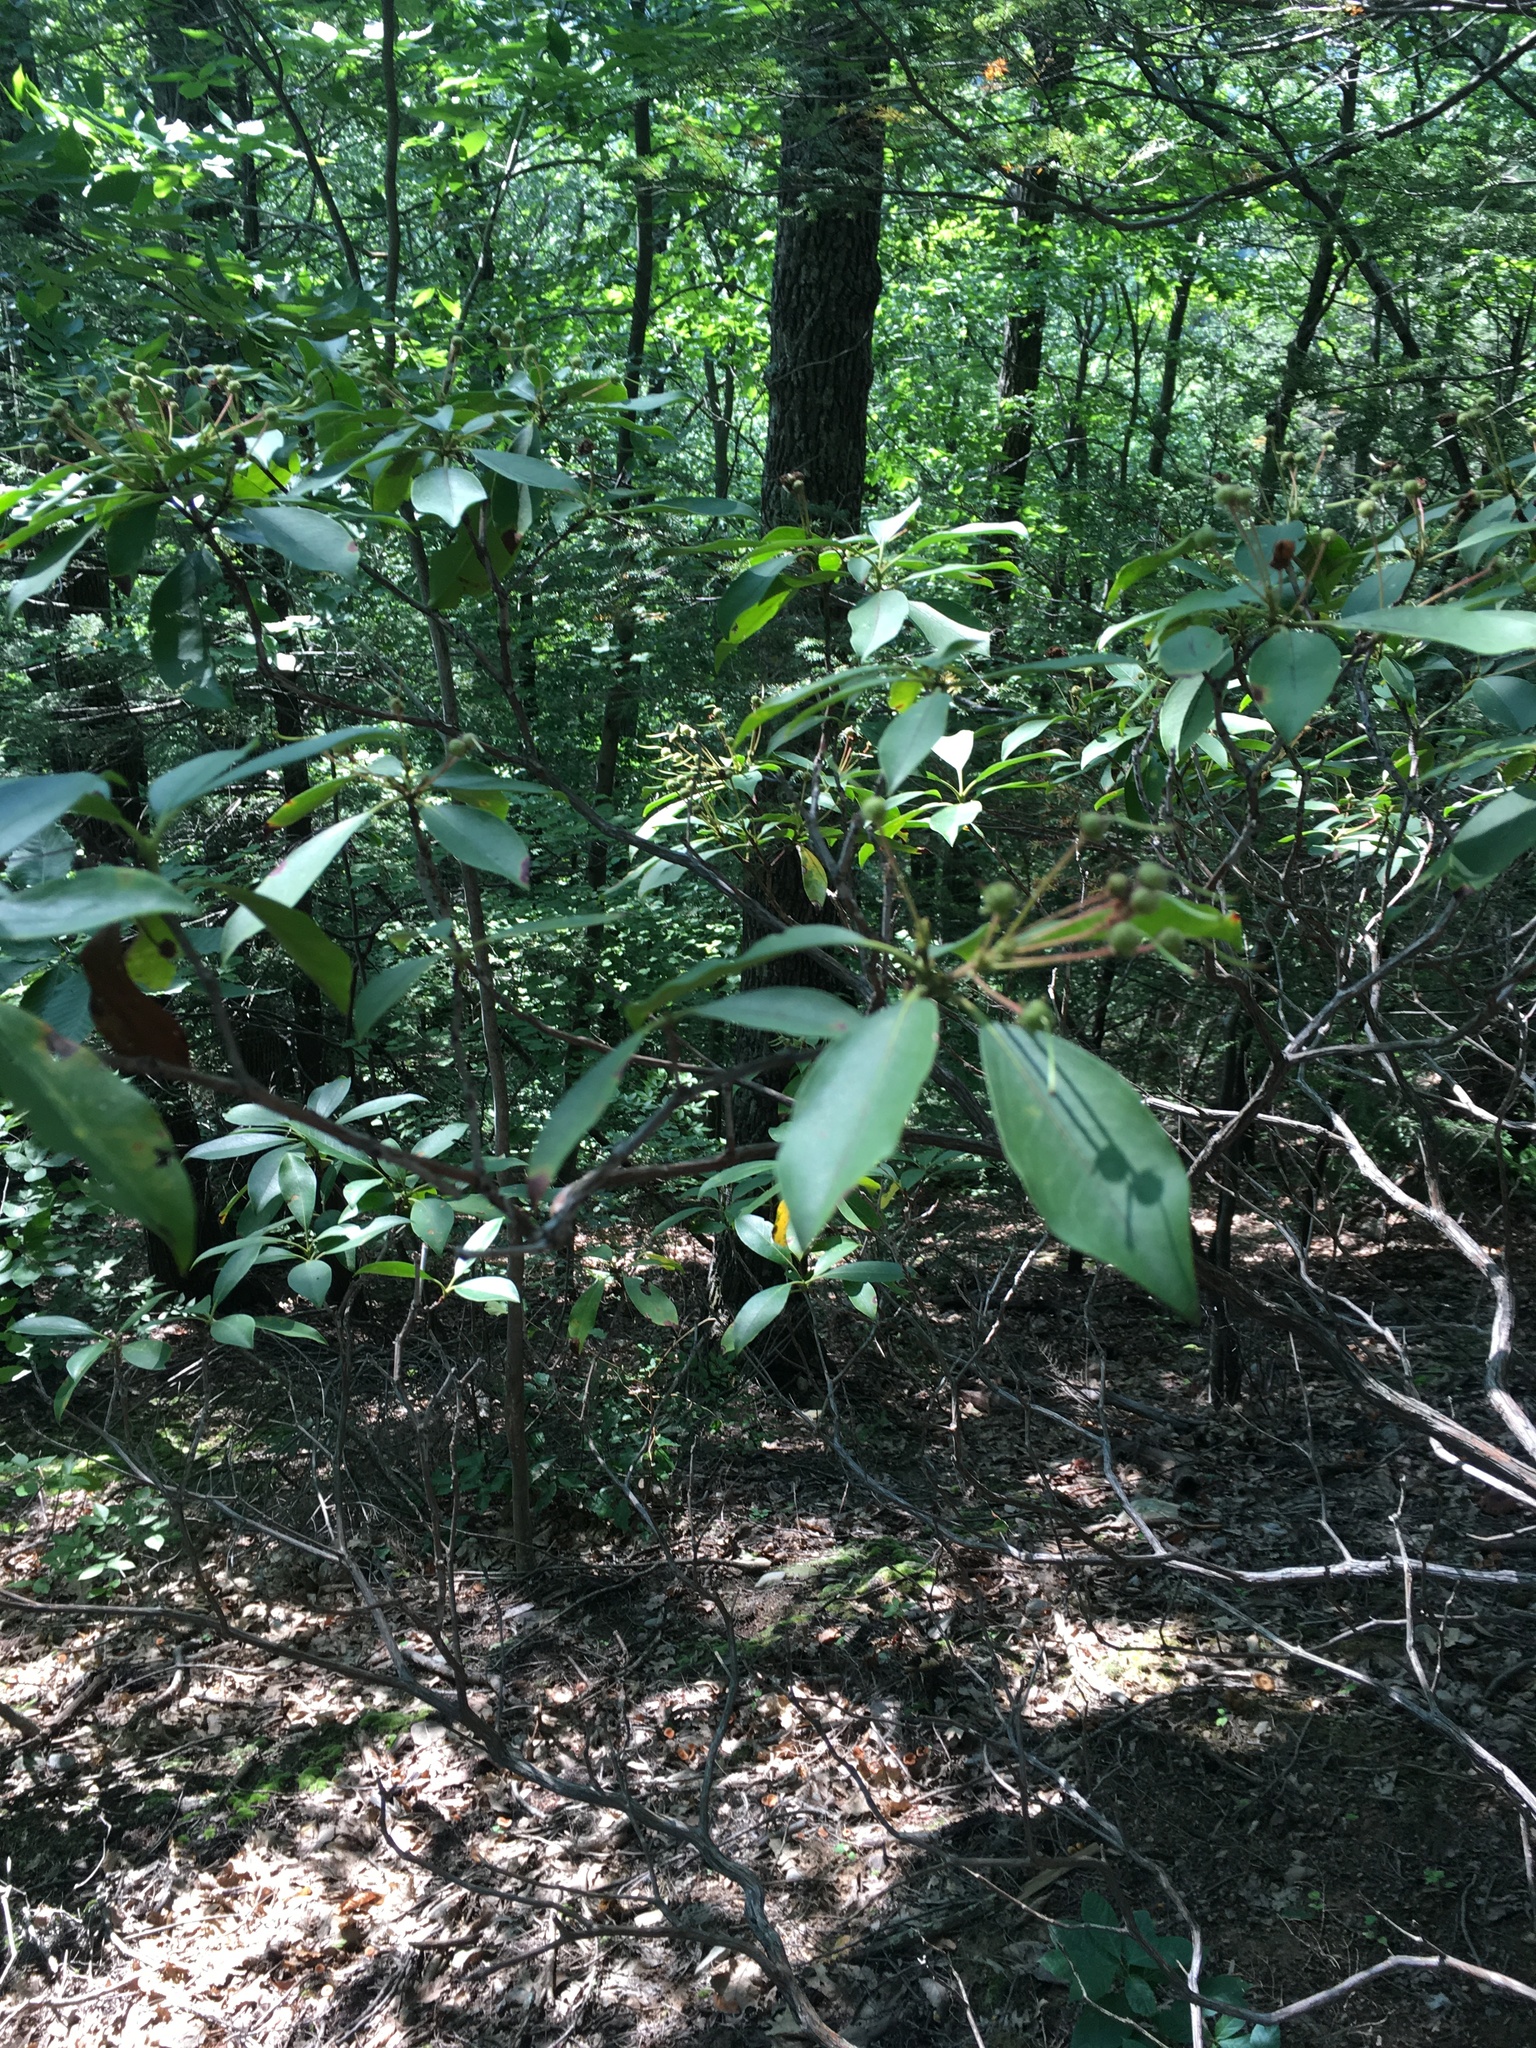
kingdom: Plantae
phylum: Tracheophyta
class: Magnoliopsida
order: Ericales
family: Ericaceae
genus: Kalmia
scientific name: Kalmia latifolia
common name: Mountain-laurel
